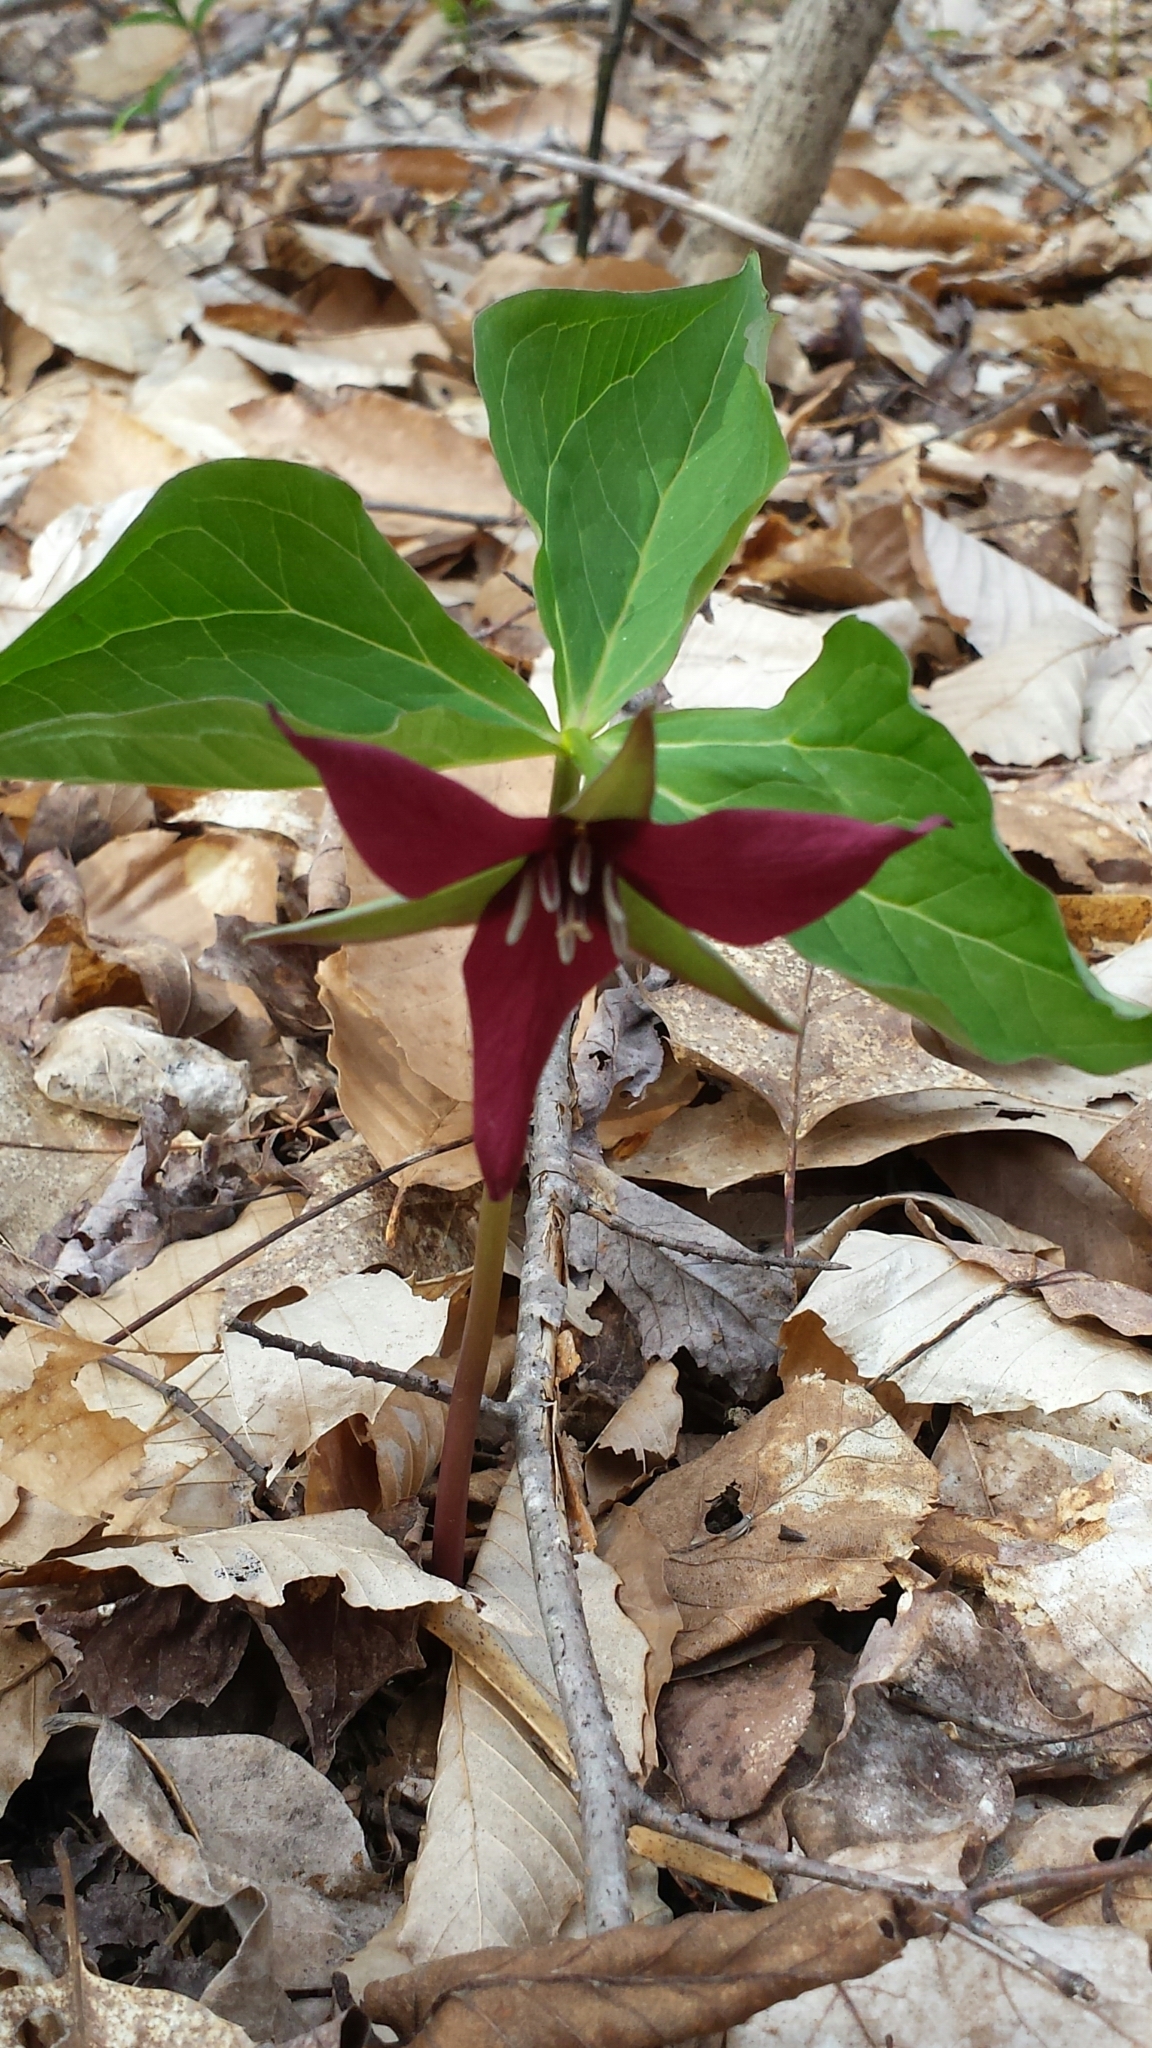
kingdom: Plantae
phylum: Tracheophyta
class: Liliopsida
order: Liliales
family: Melanthiaceae
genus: Trillium
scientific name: Trillium erectum
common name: Purple trillium
